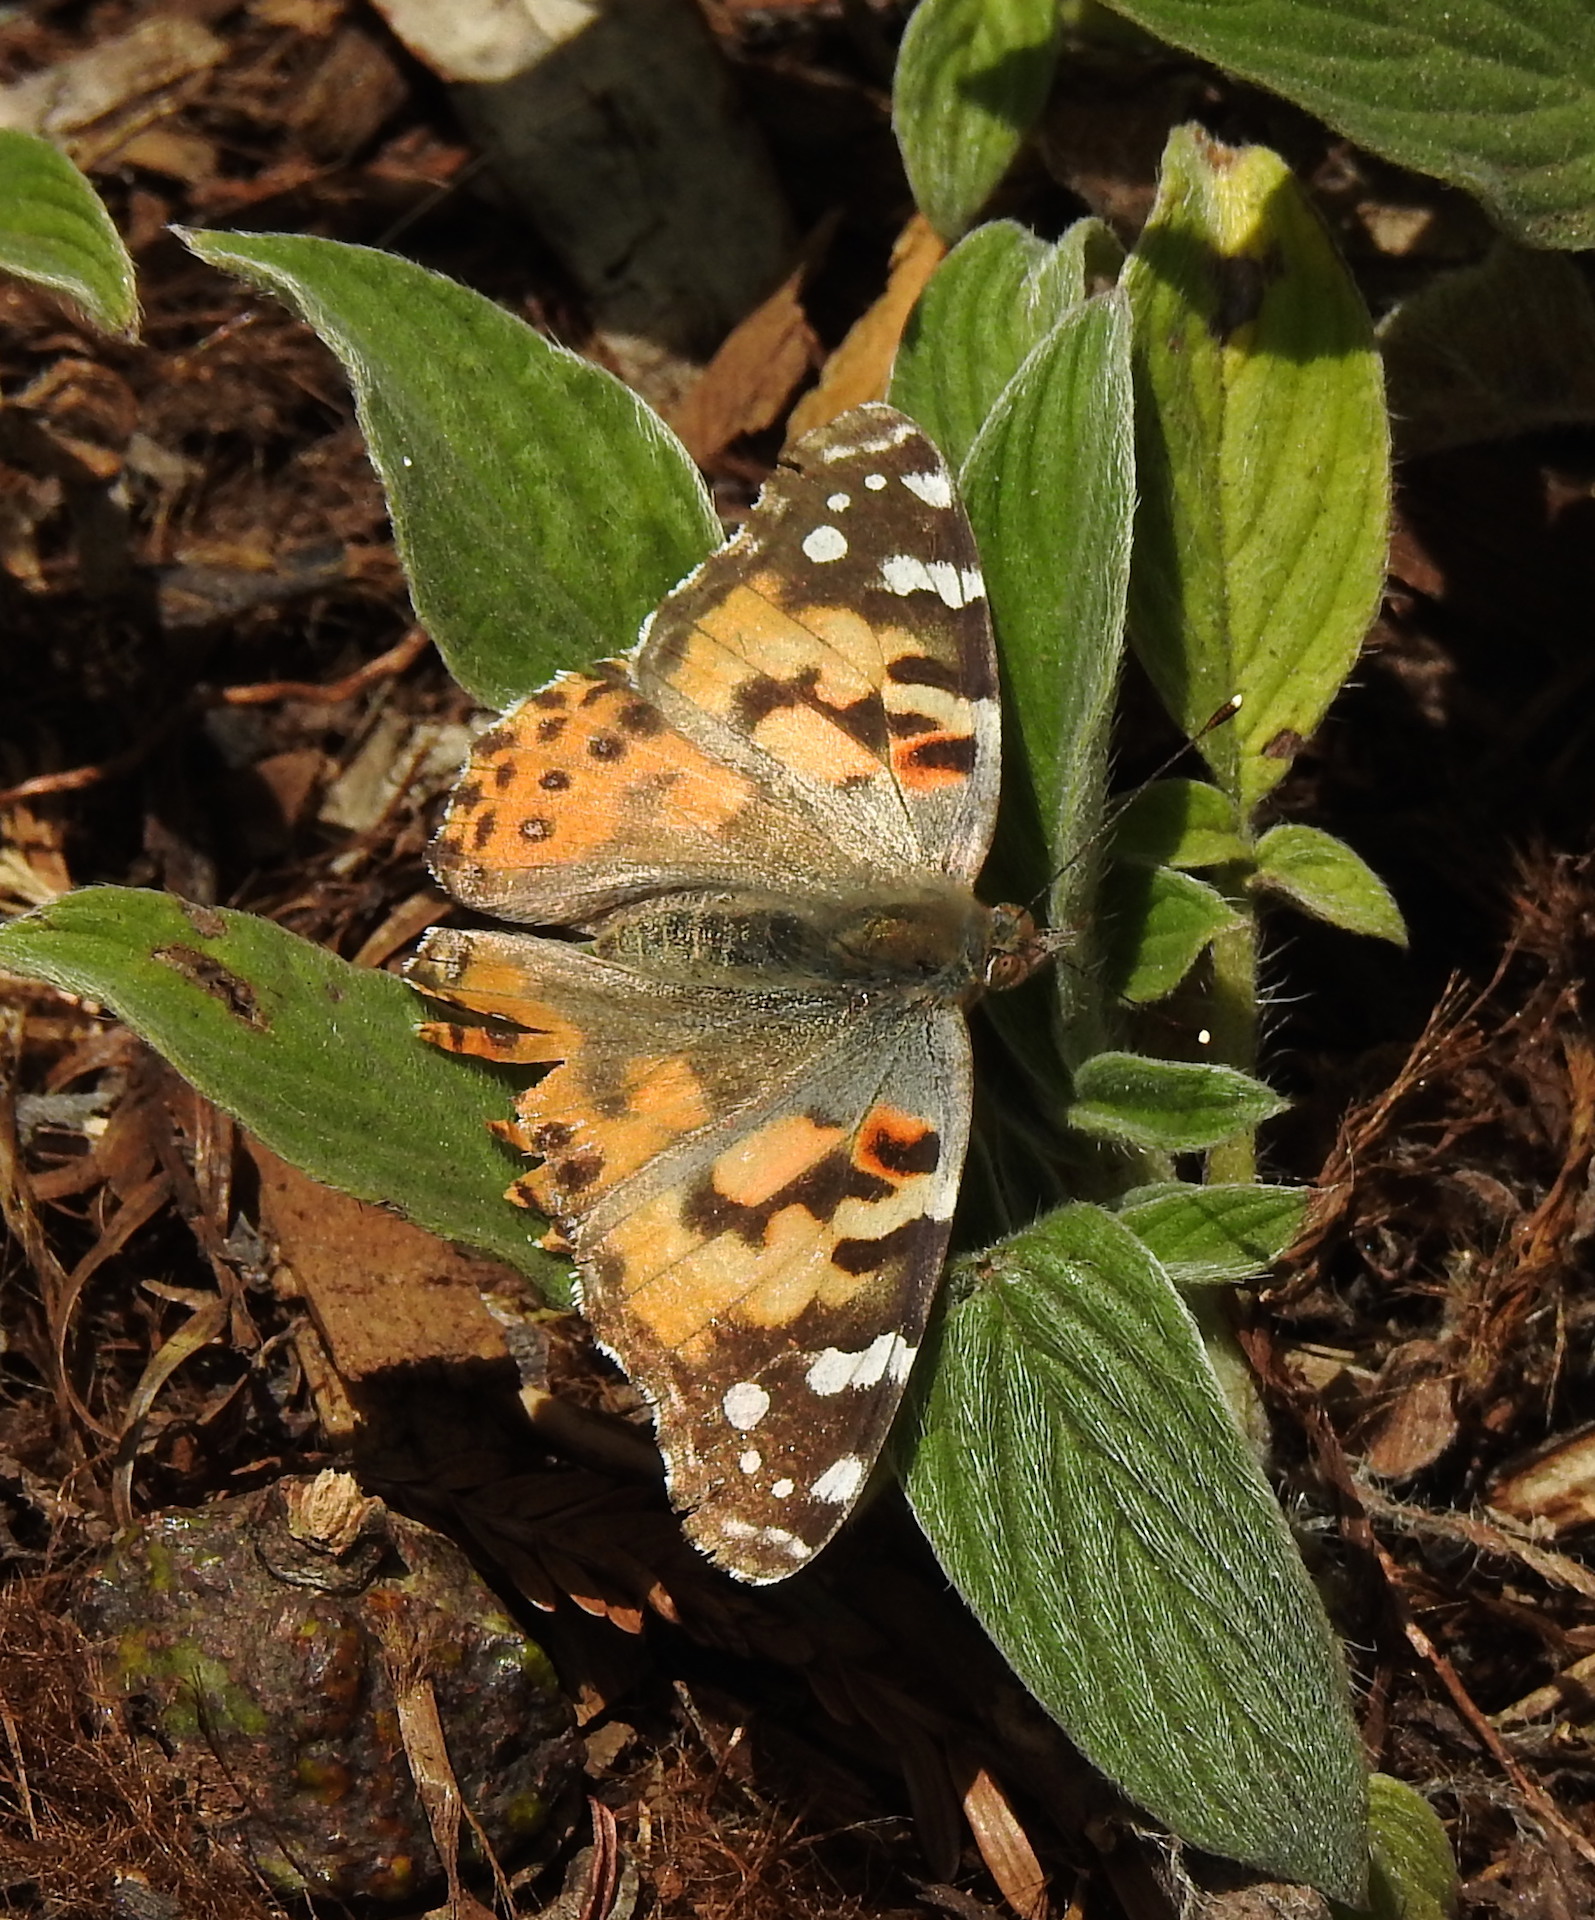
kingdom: Animalia
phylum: Arthropoda
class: Insecta
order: Lepidoptera
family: Nymphalidae
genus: Vanessa
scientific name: Vanessa cardui
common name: Painted lady
